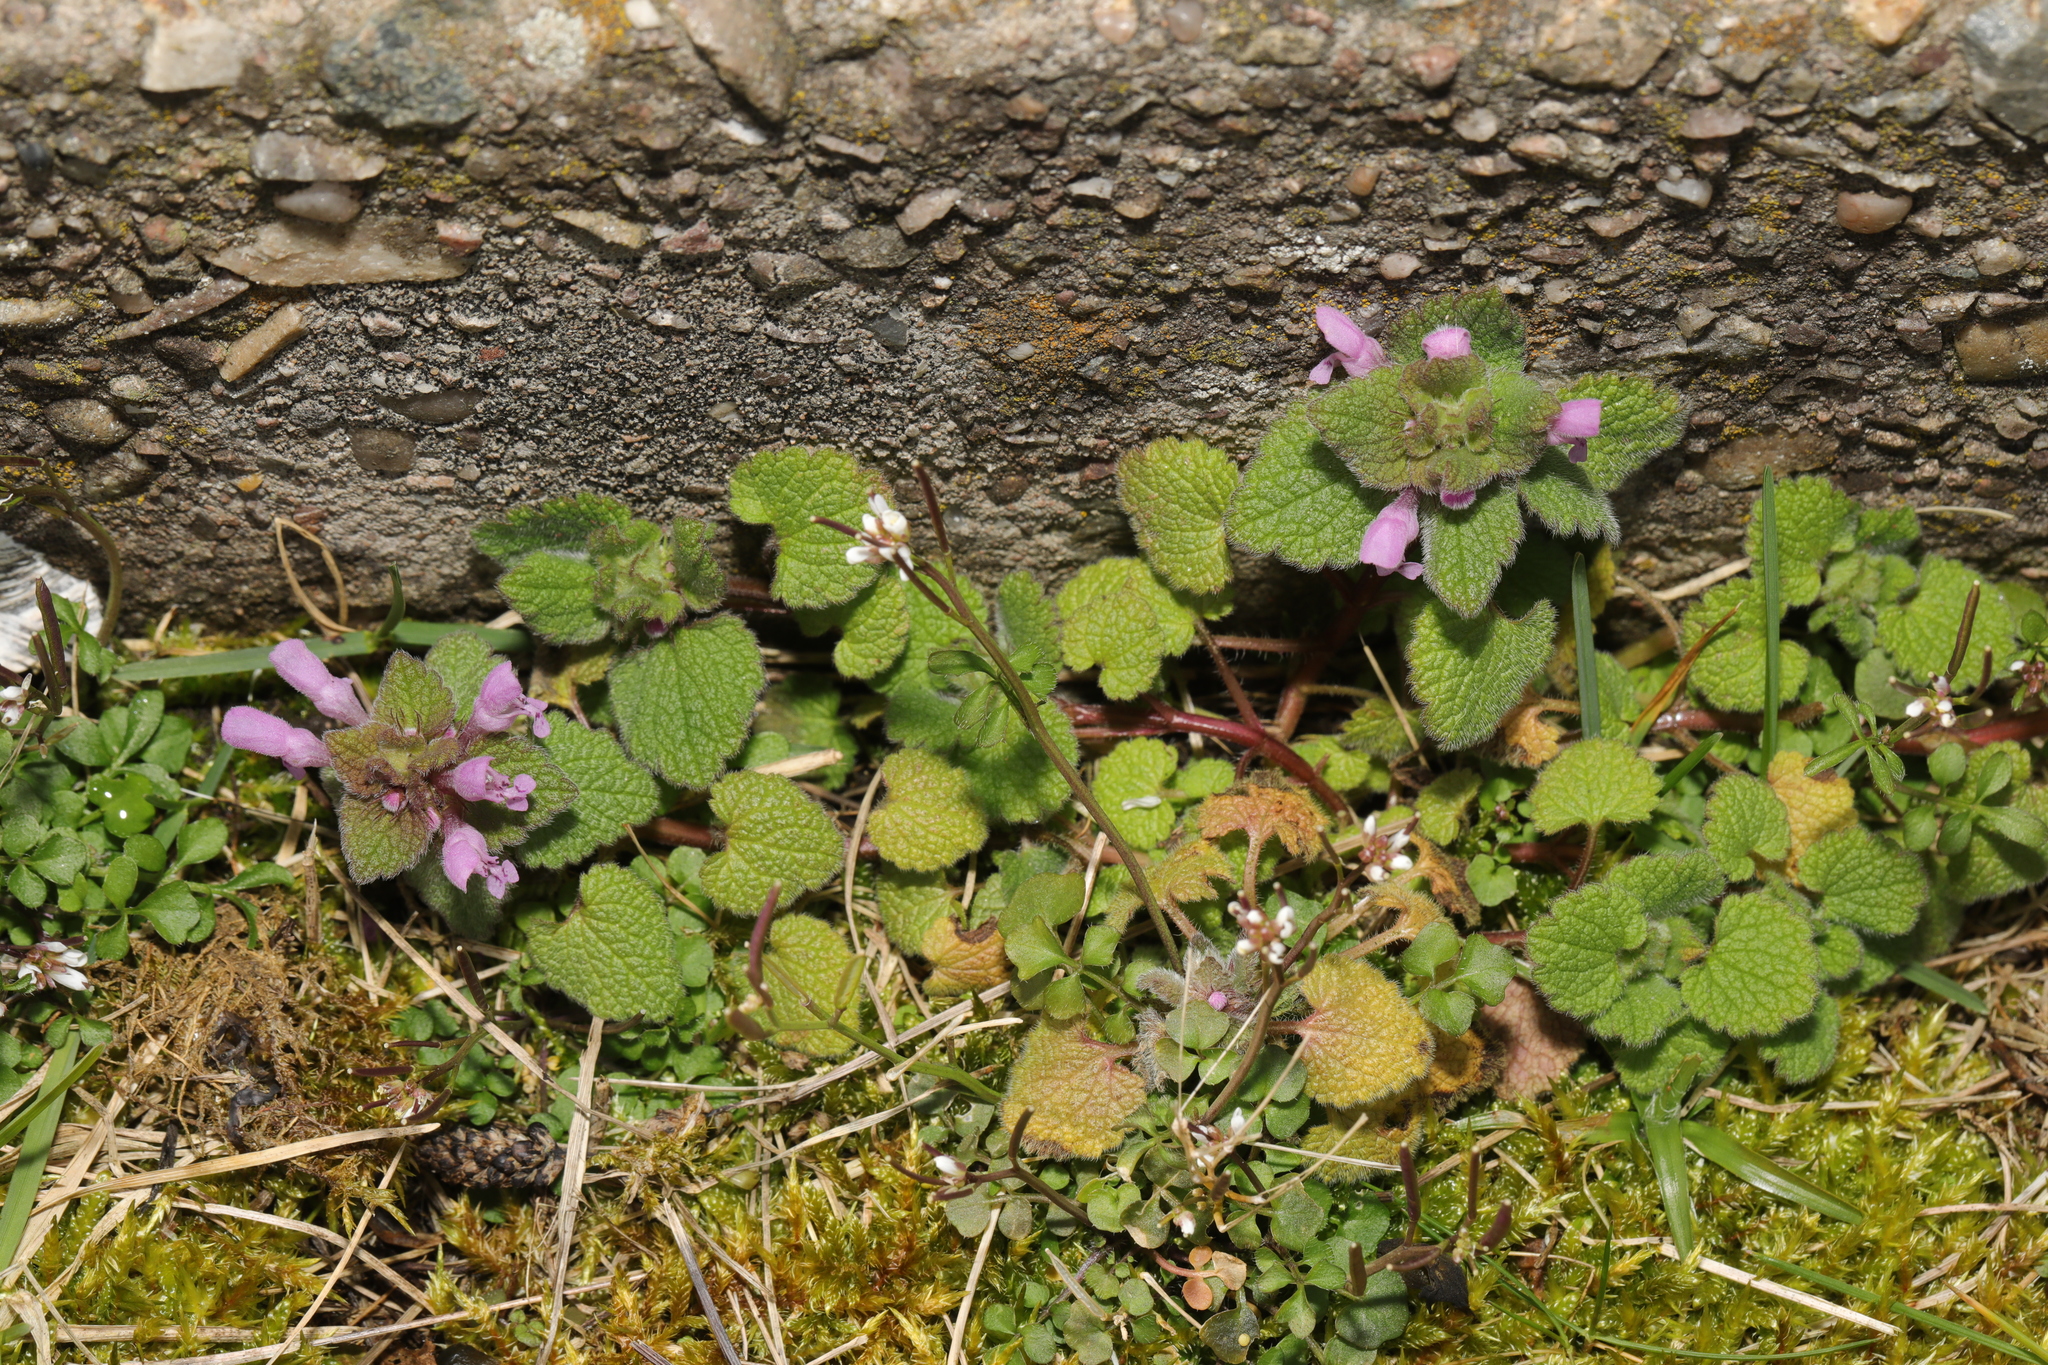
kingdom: Plantae
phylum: Tracheophyta
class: Magnoliopsida
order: Lamiales
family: Lamiaceae
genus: Lamium
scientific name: Lamium purpureum
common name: Red dead-nettle
